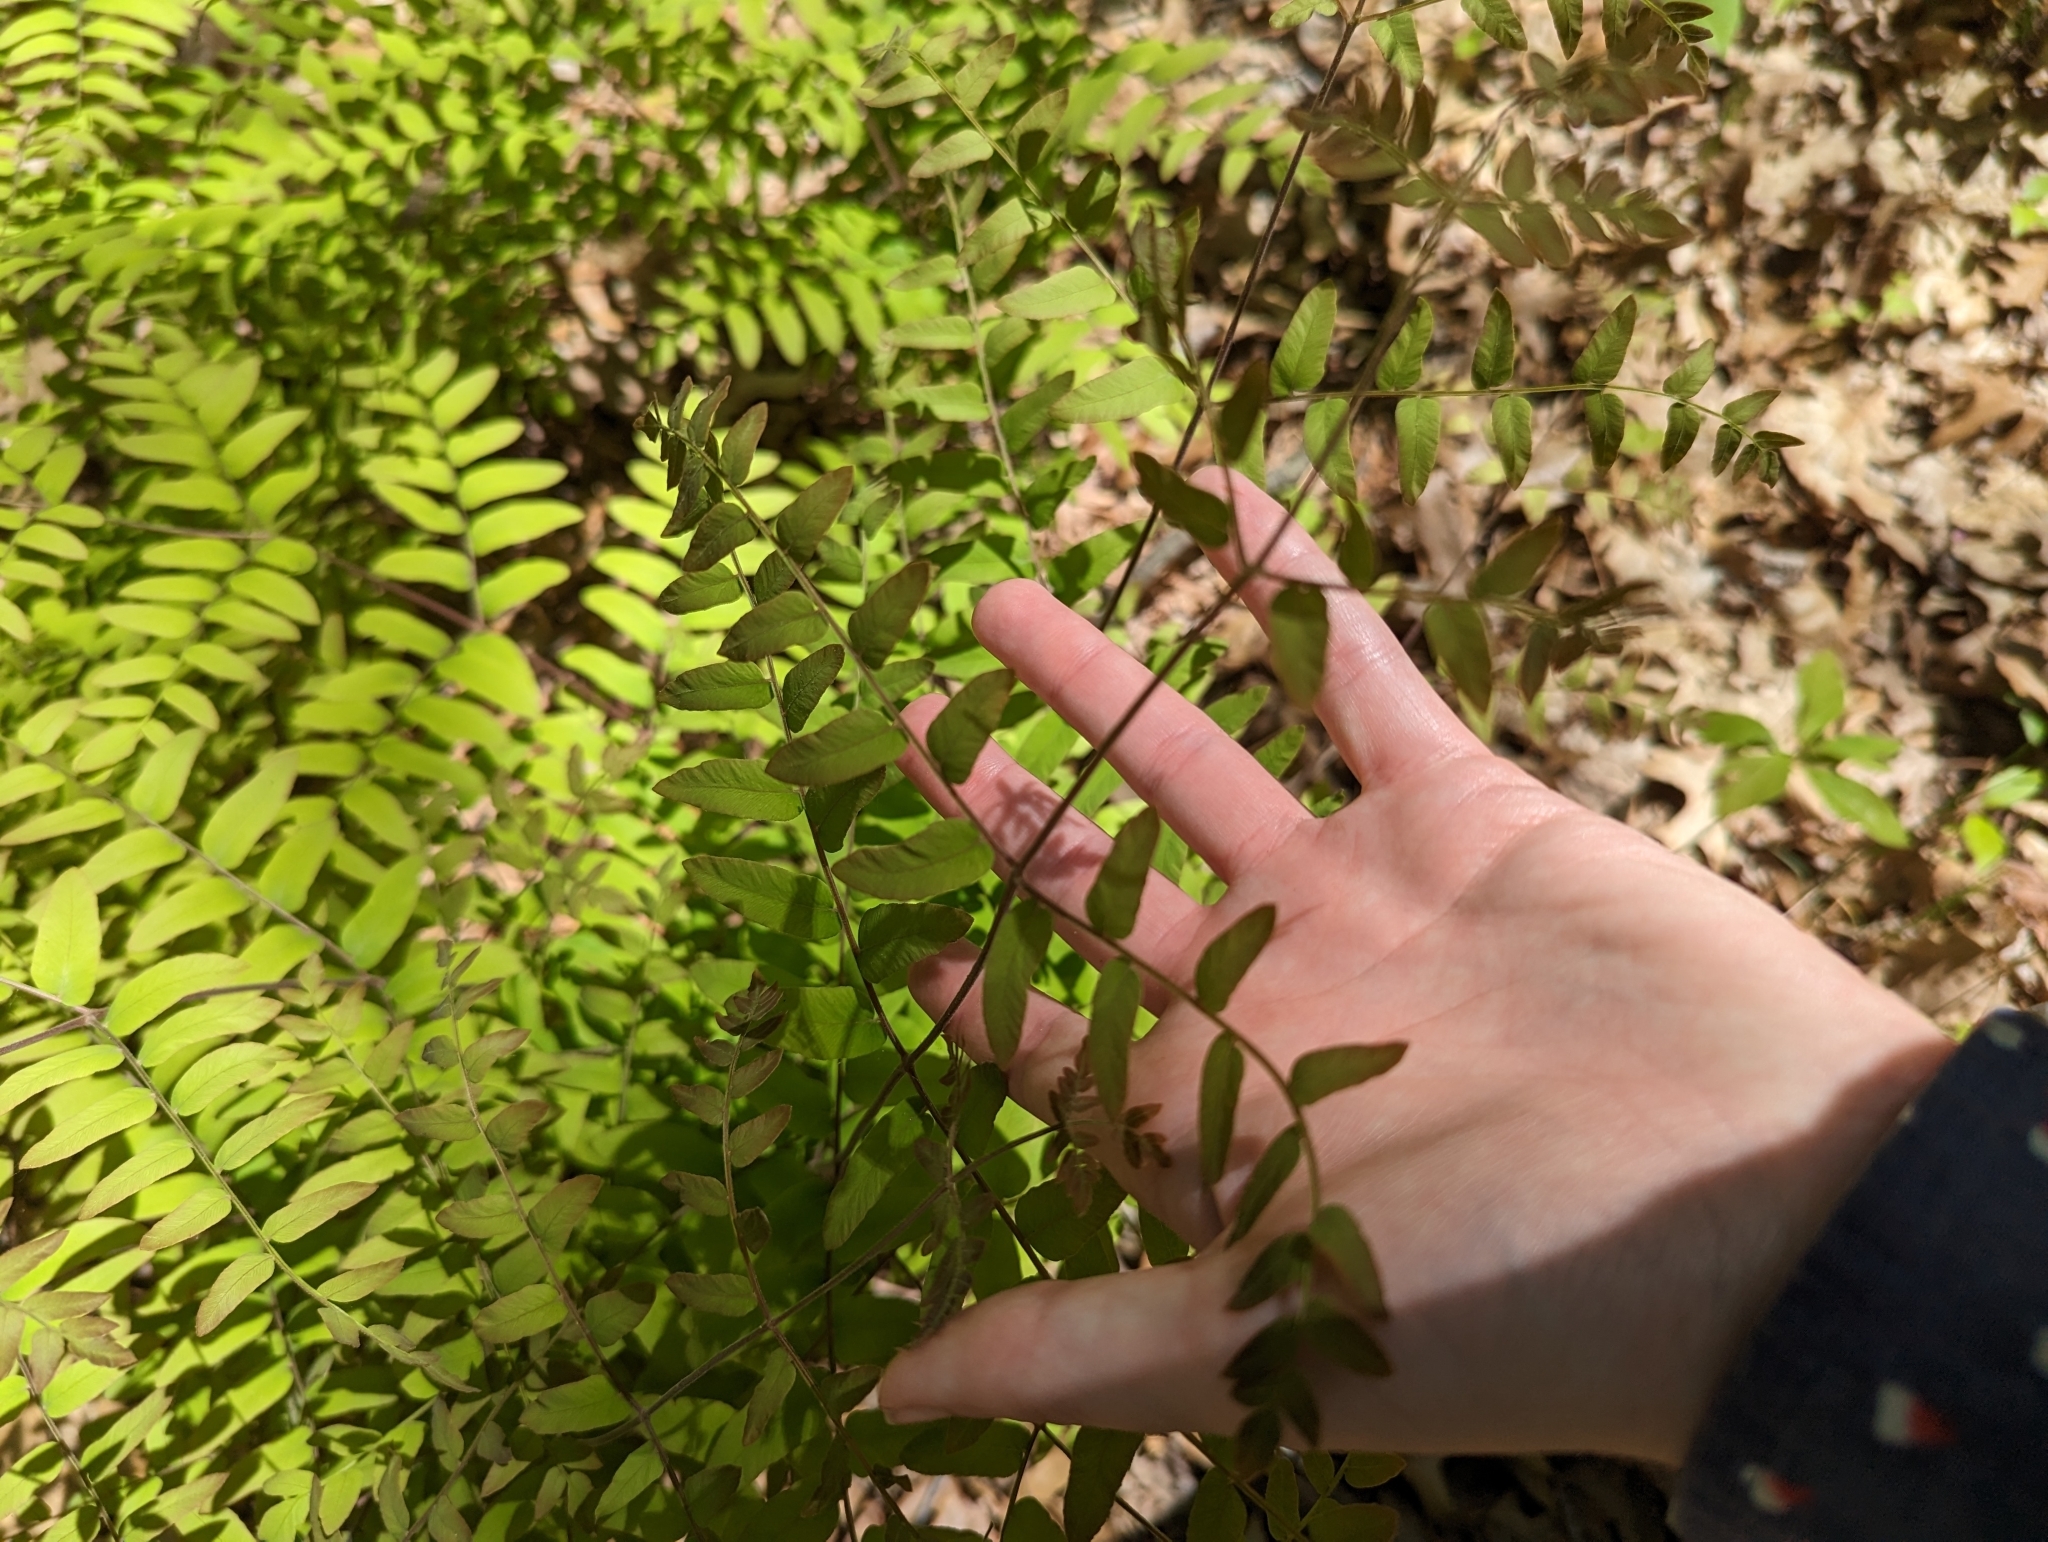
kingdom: Plantae
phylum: Tracheophyta
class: Polypodiopsida
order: Osmundales
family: Osmundaceae
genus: Osmunda
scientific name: Osmunda spectabilis
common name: American royal fern
